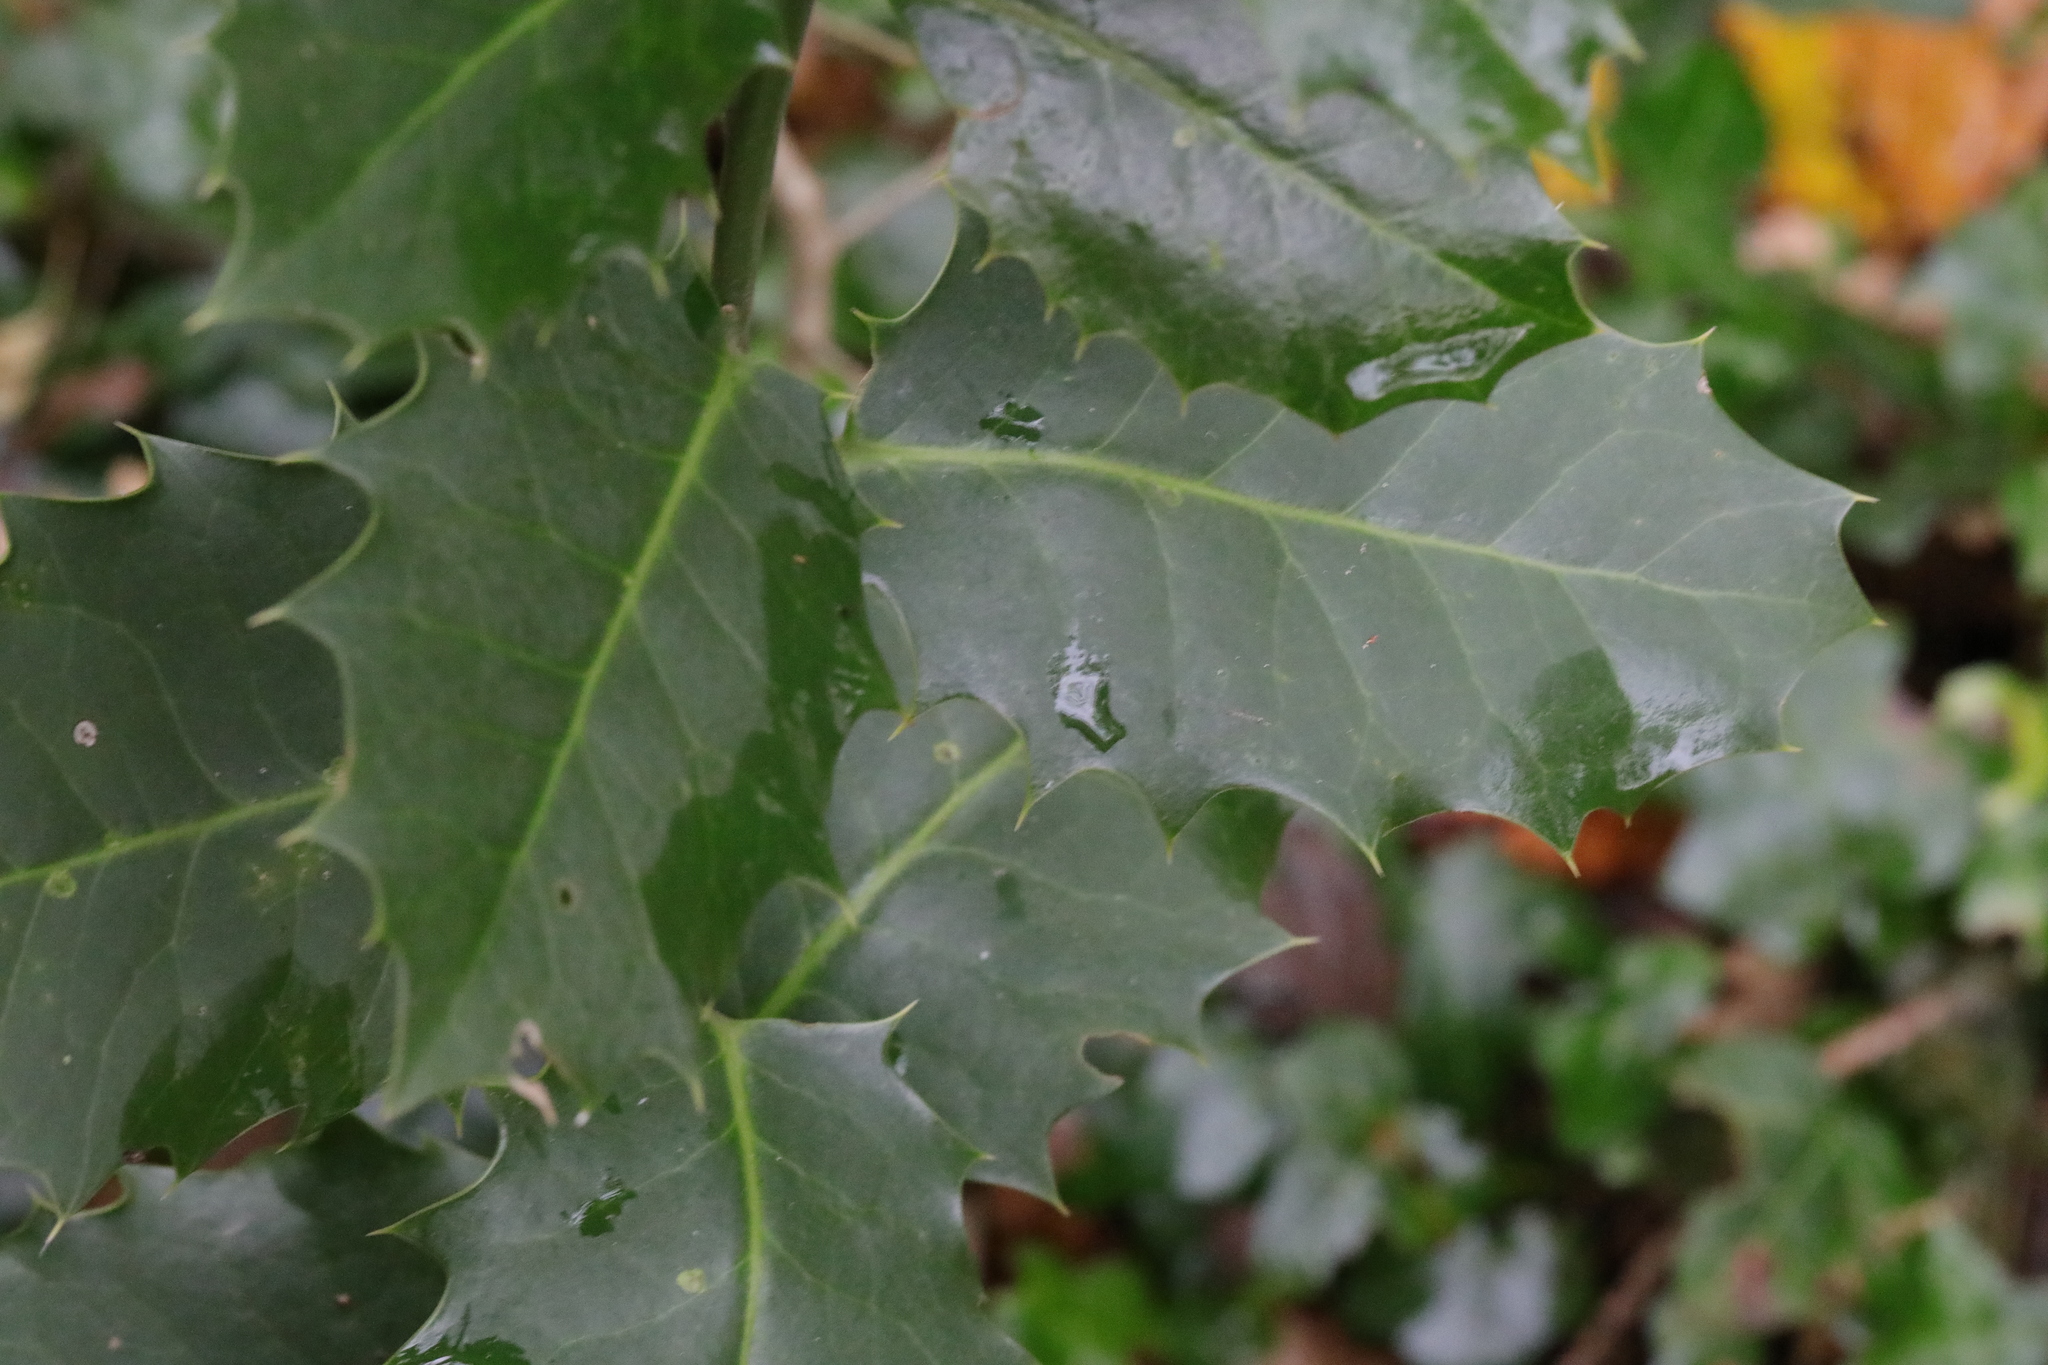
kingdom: Plantae
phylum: Tracheophyta
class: Magnoliopsida
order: Aquifoliales
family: Aquifoliaceae
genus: Ilex
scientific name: Ilex aquifolium
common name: English holly
